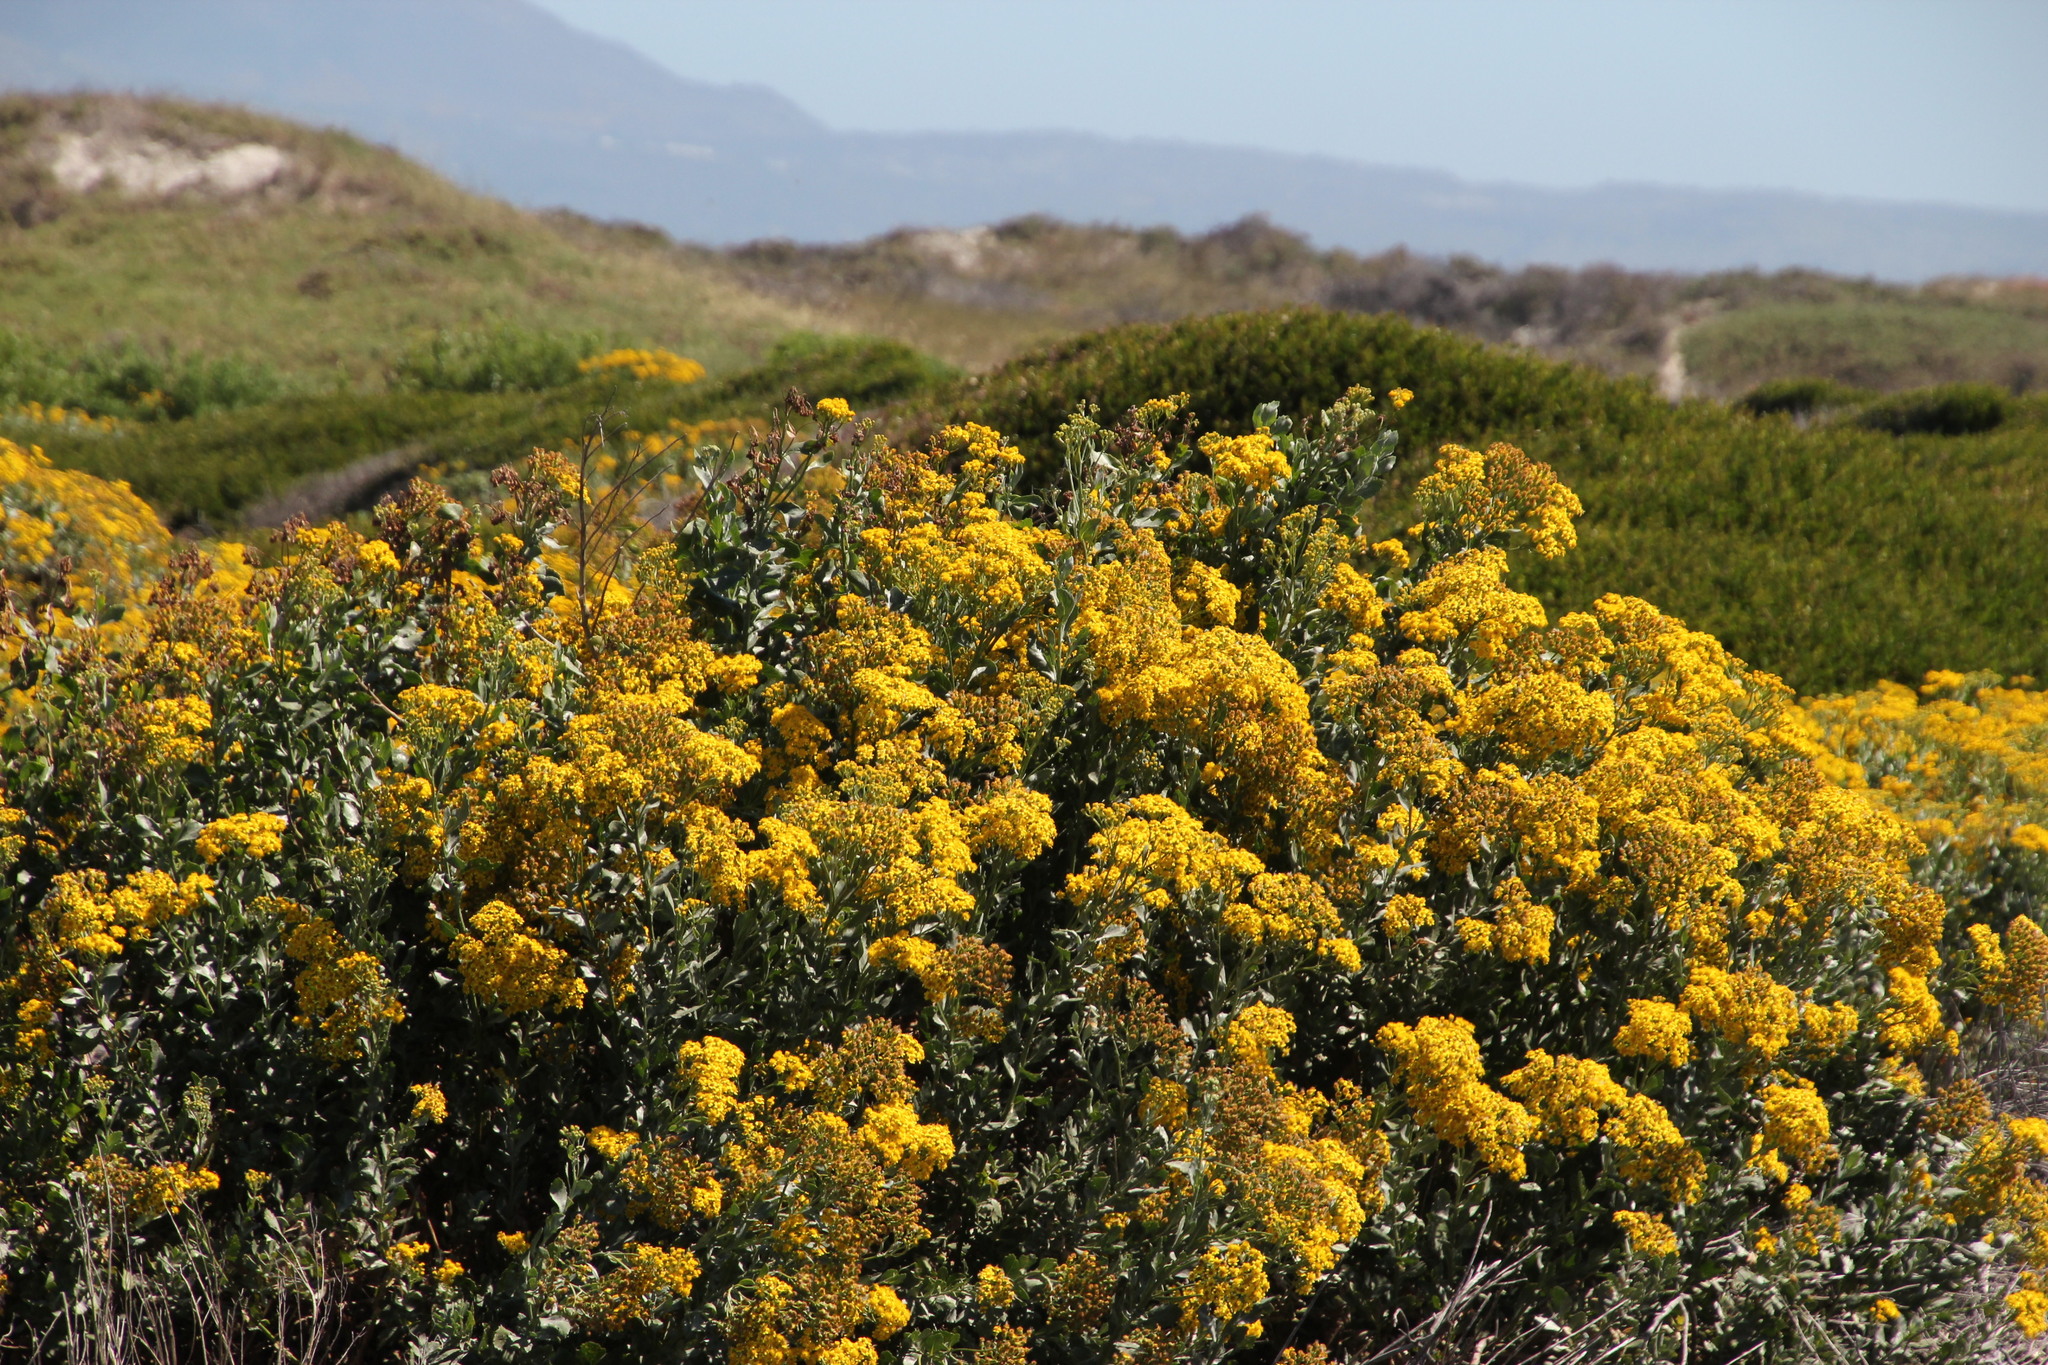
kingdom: Plantae
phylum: Tracheophyta
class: Magnoliopsida
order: Asterales
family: Asteraceae
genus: Senecio
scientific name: Senecio halimifolius
